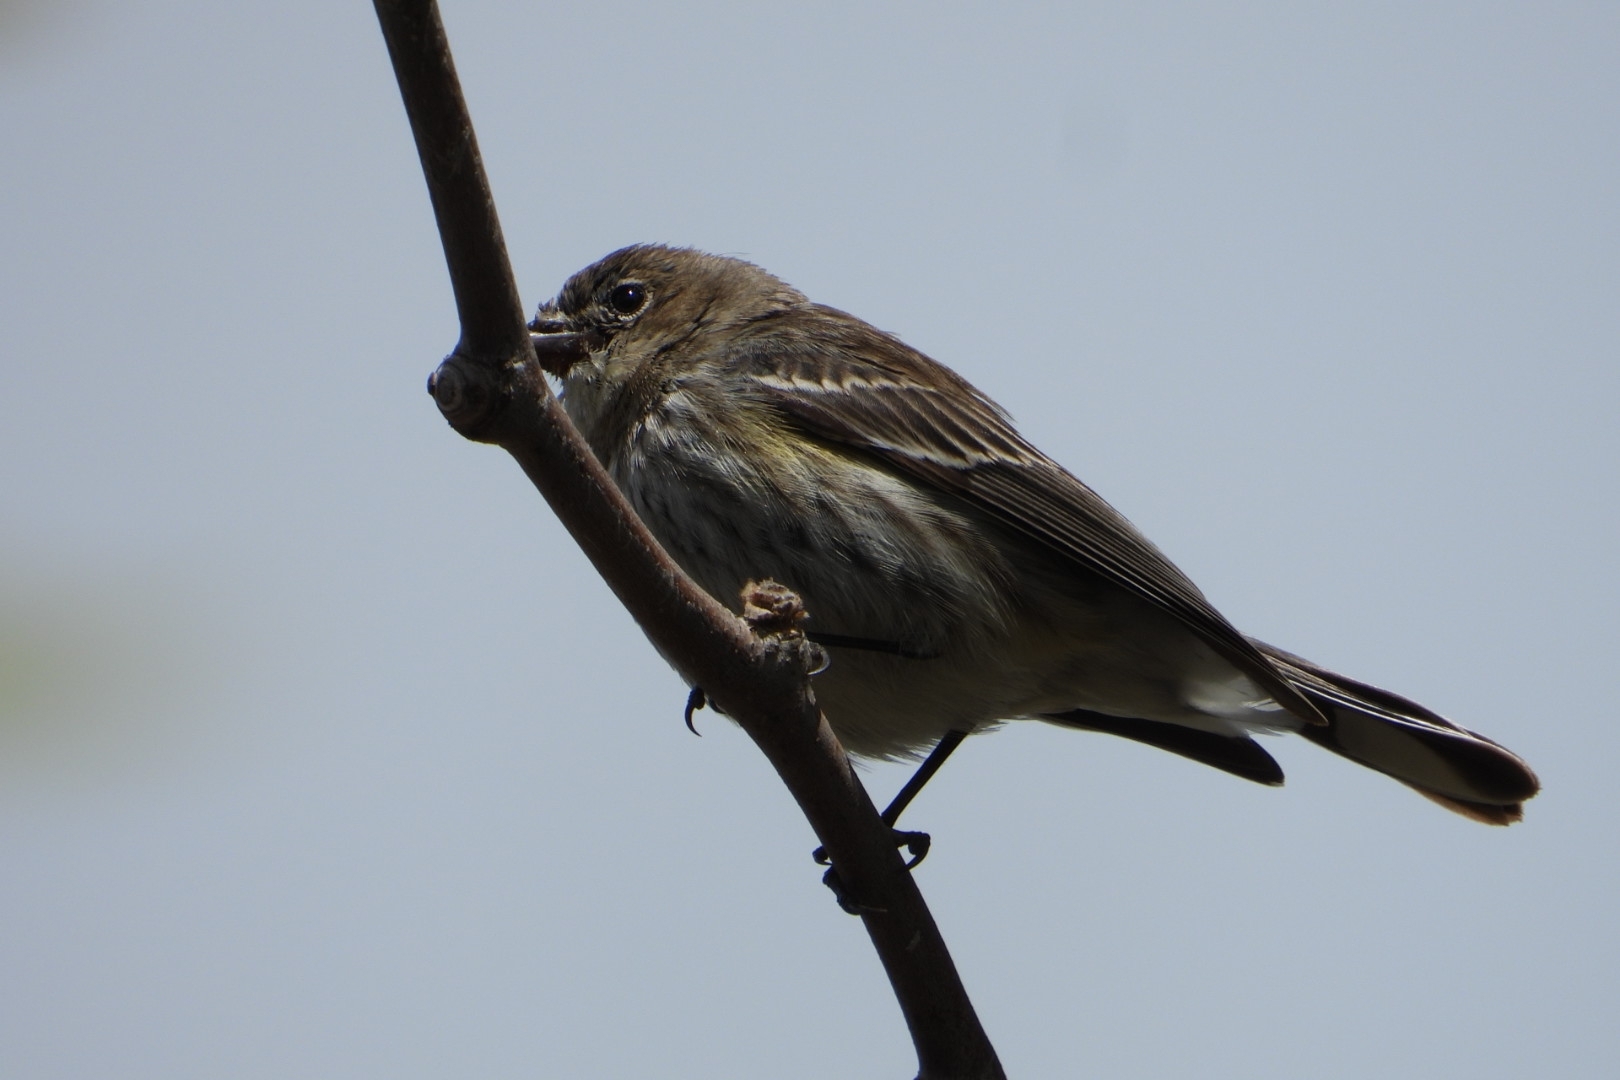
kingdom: Animalia
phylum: Chordata
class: Aves
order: Passeriformes
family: Fringillidae
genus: Haemorhous
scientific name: Haemorhous mexicanus
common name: House finch
